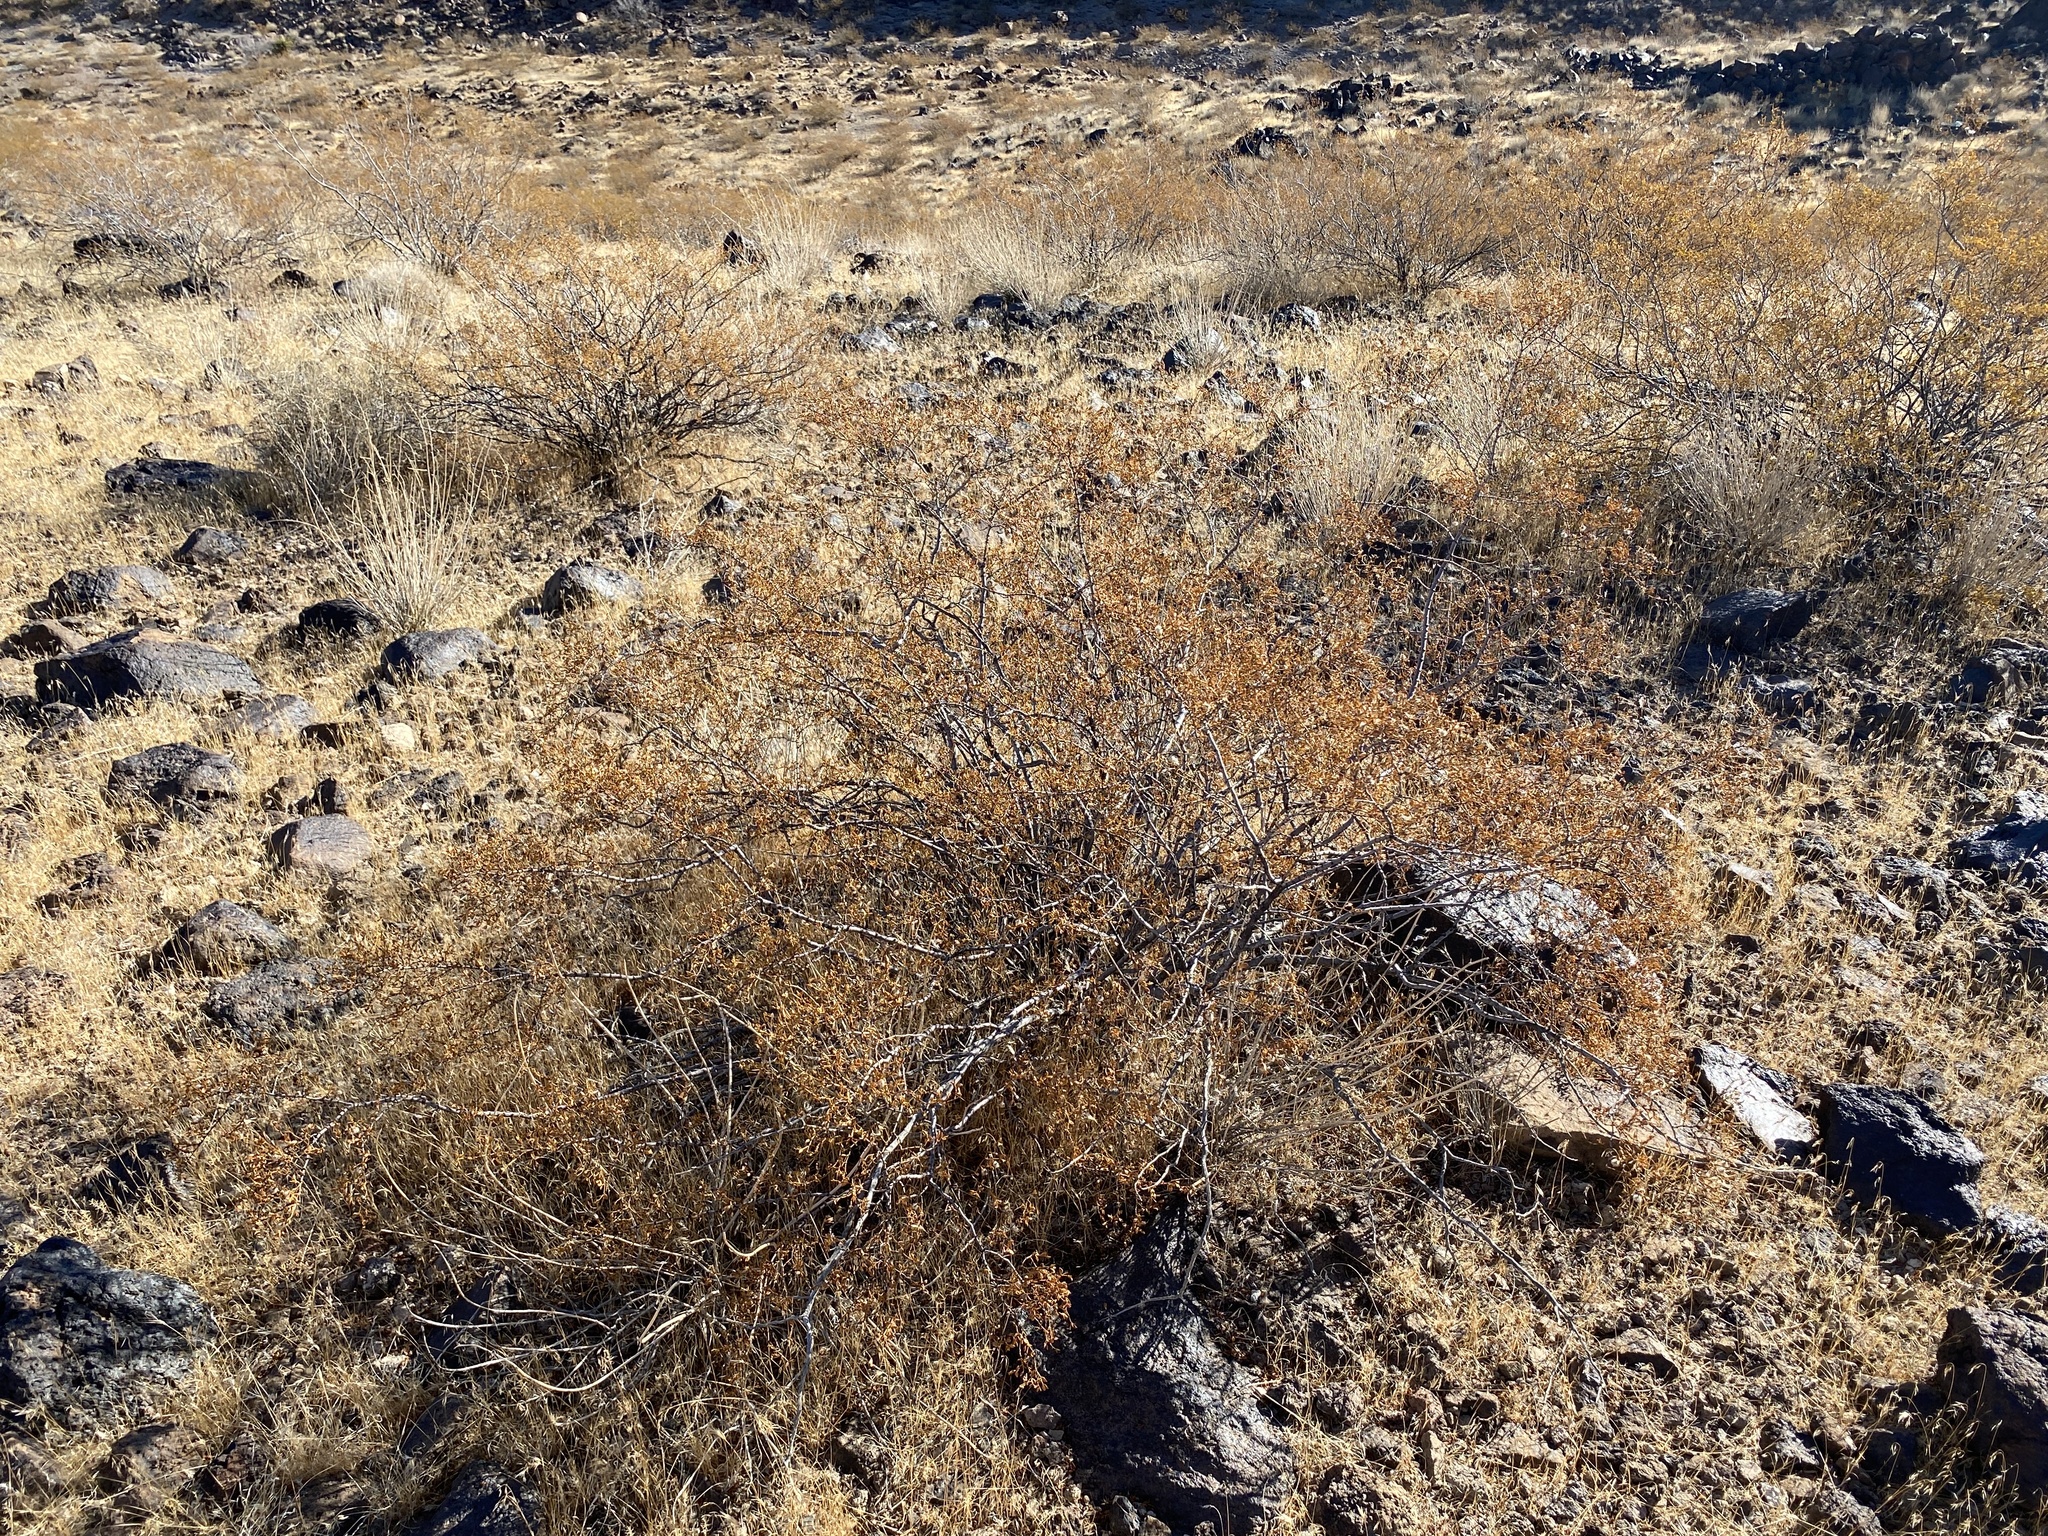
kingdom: Plantae
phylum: Tracheophyta
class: Magnoliopsida
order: Zygophyllales
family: Zygophyllaceae
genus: Larrea
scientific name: Larrea tridentata
